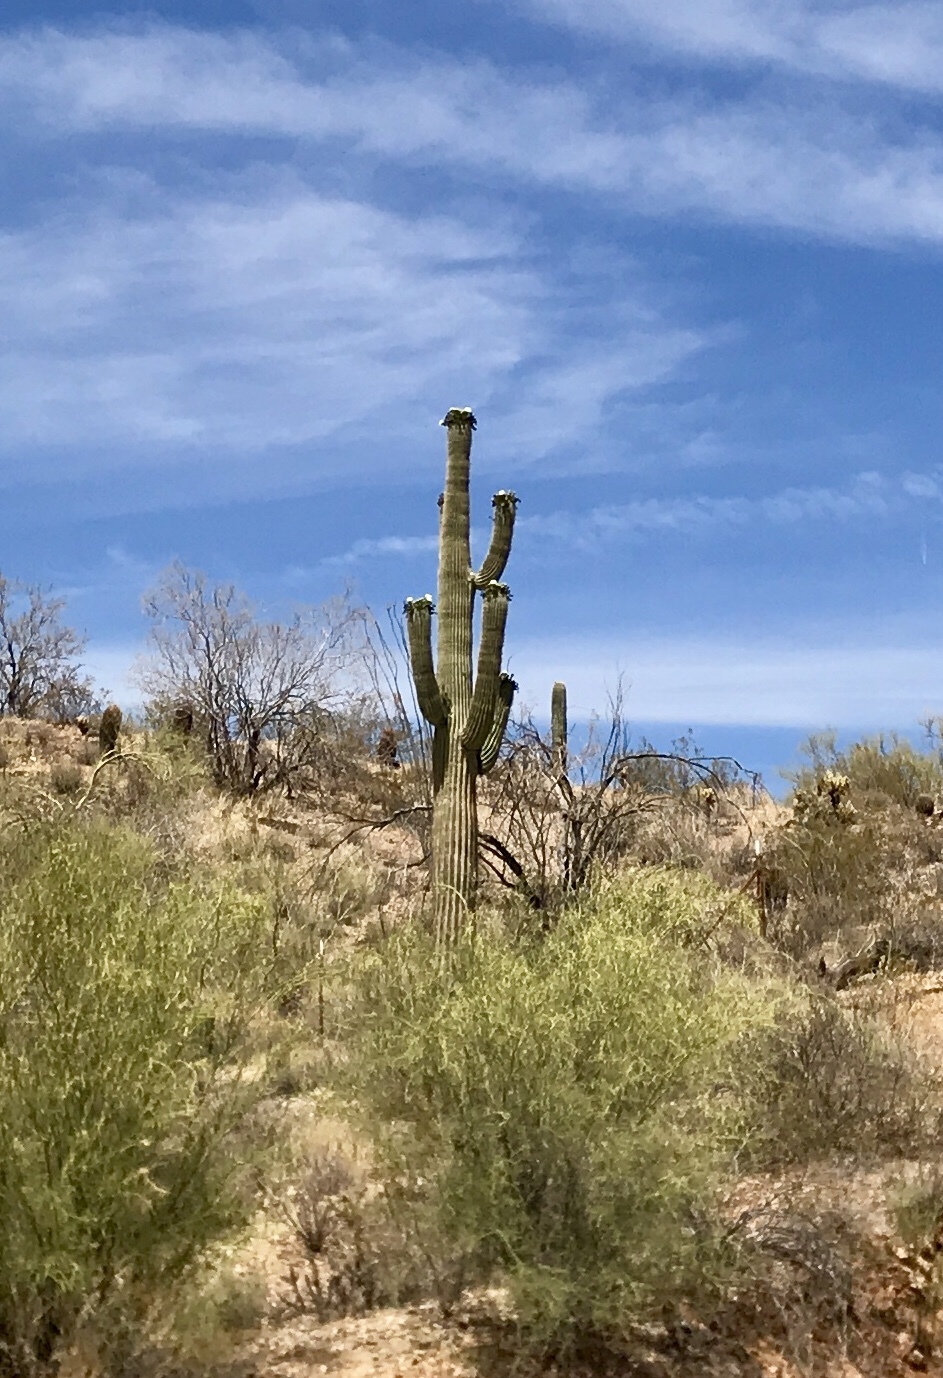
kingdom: Plantae
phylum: Tracheophyta
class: Magnoliopsida
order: Caryophyllales
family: Cactaceae
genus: Carnegiea
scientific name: Carnegiea gigantea
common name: Saguaro
